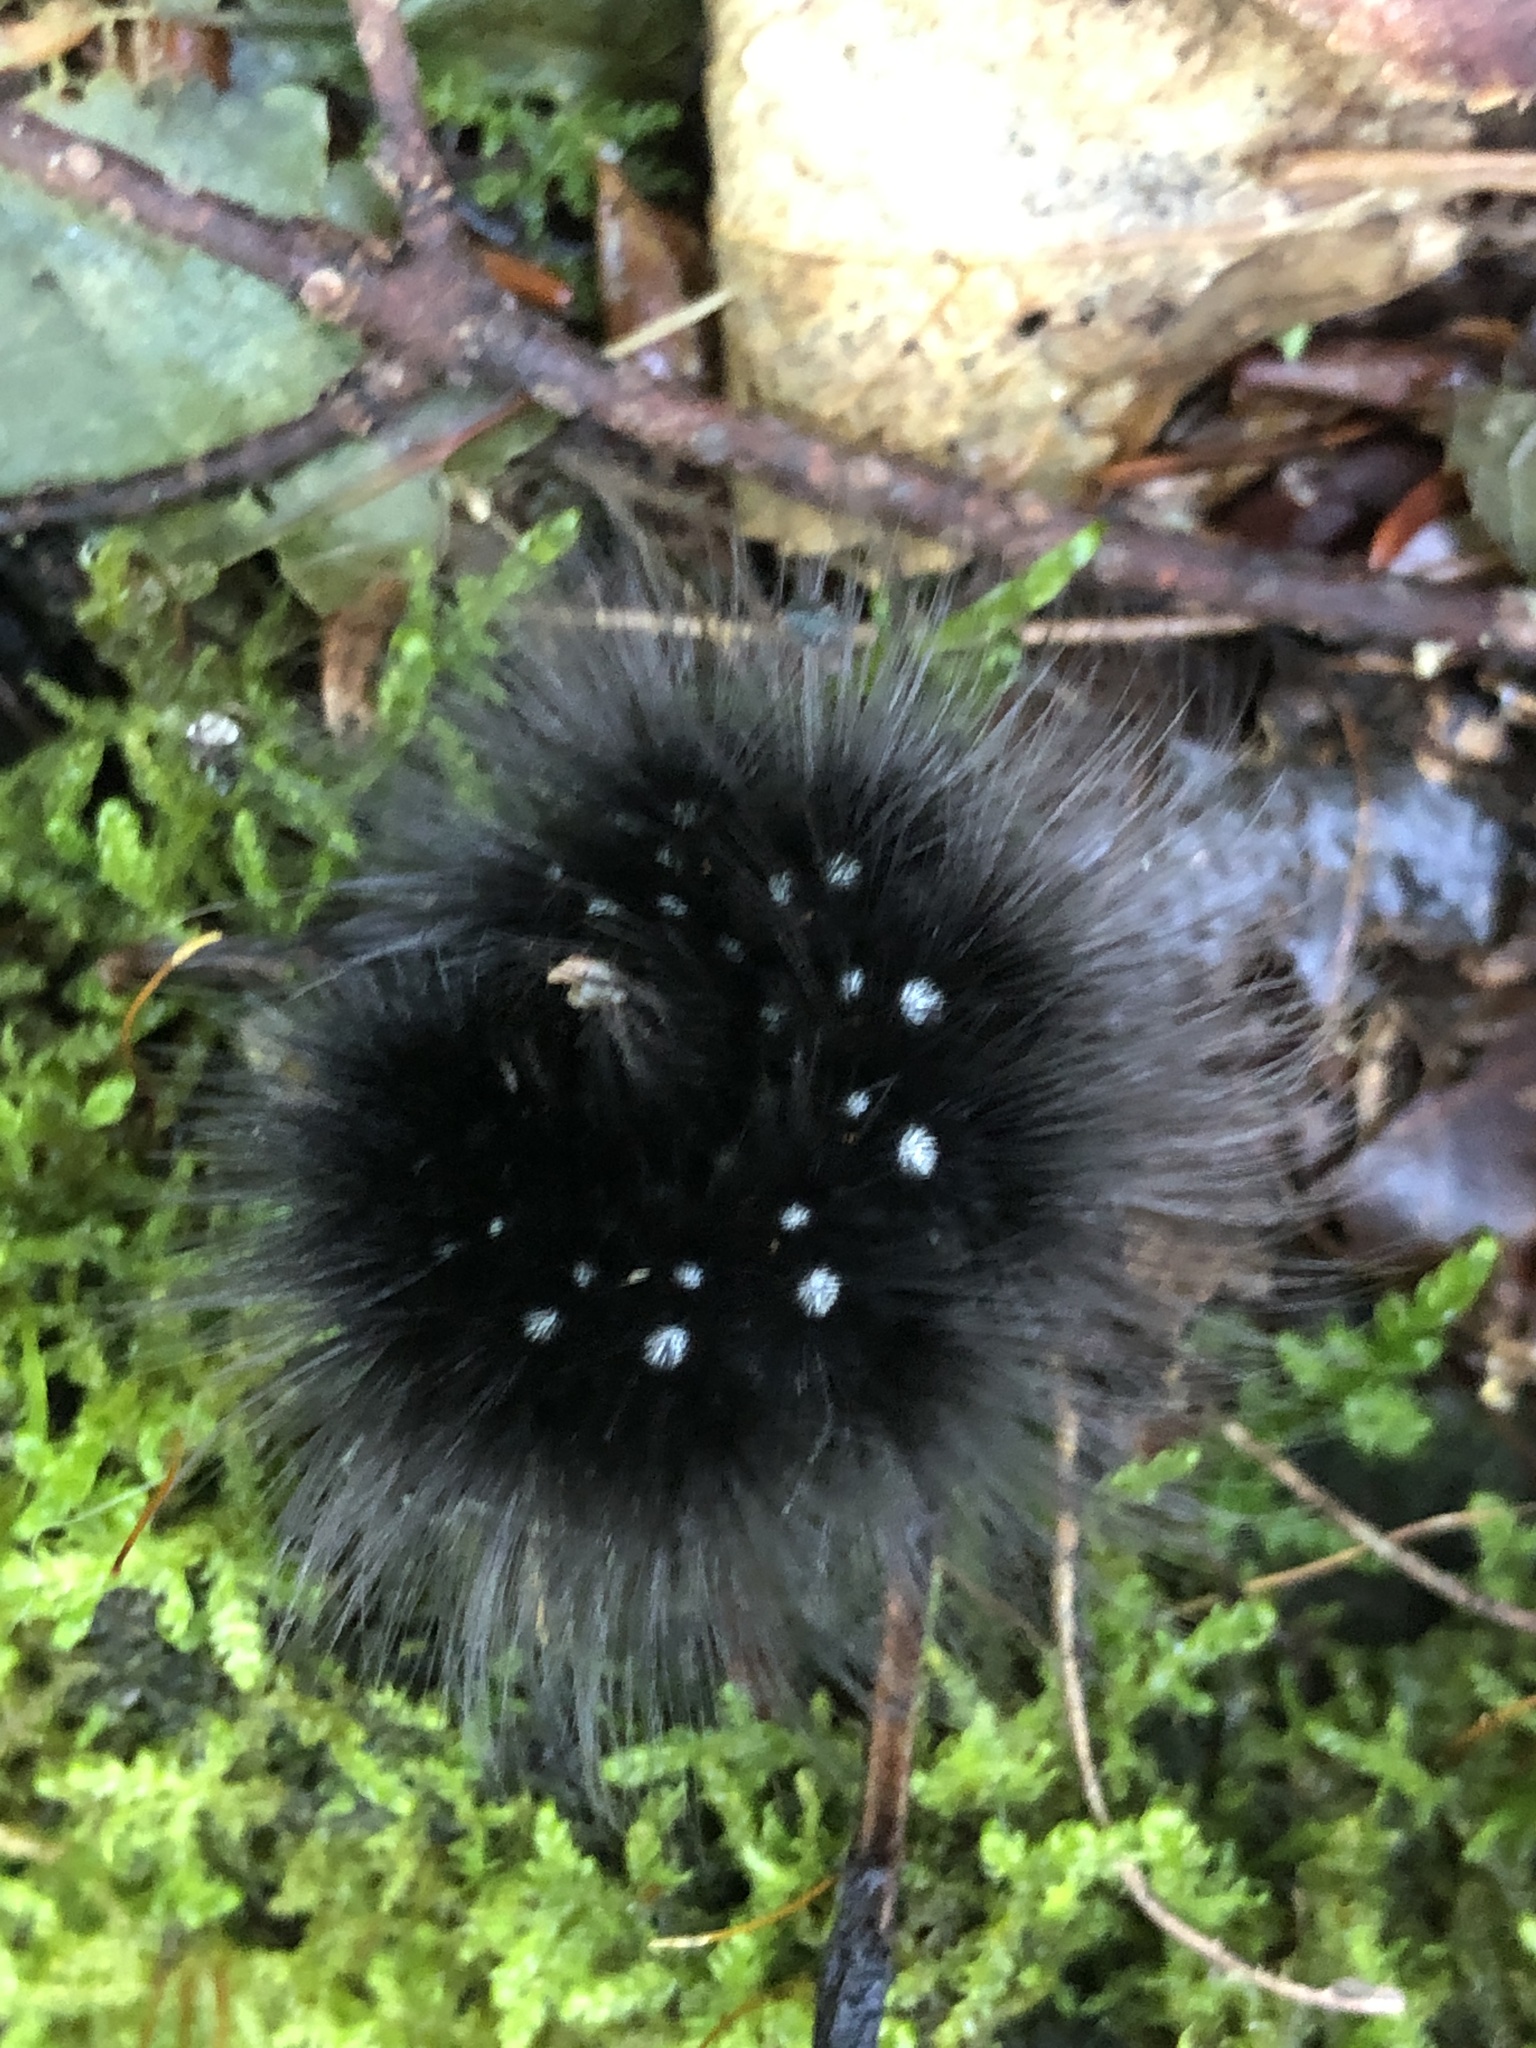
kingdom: Animalia
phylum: Arthropoda
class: Insecta
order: Lepidoptera
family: Erebidae
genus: Arctia
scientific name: Arctia parthenos
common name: St. lawrence tiger moth
